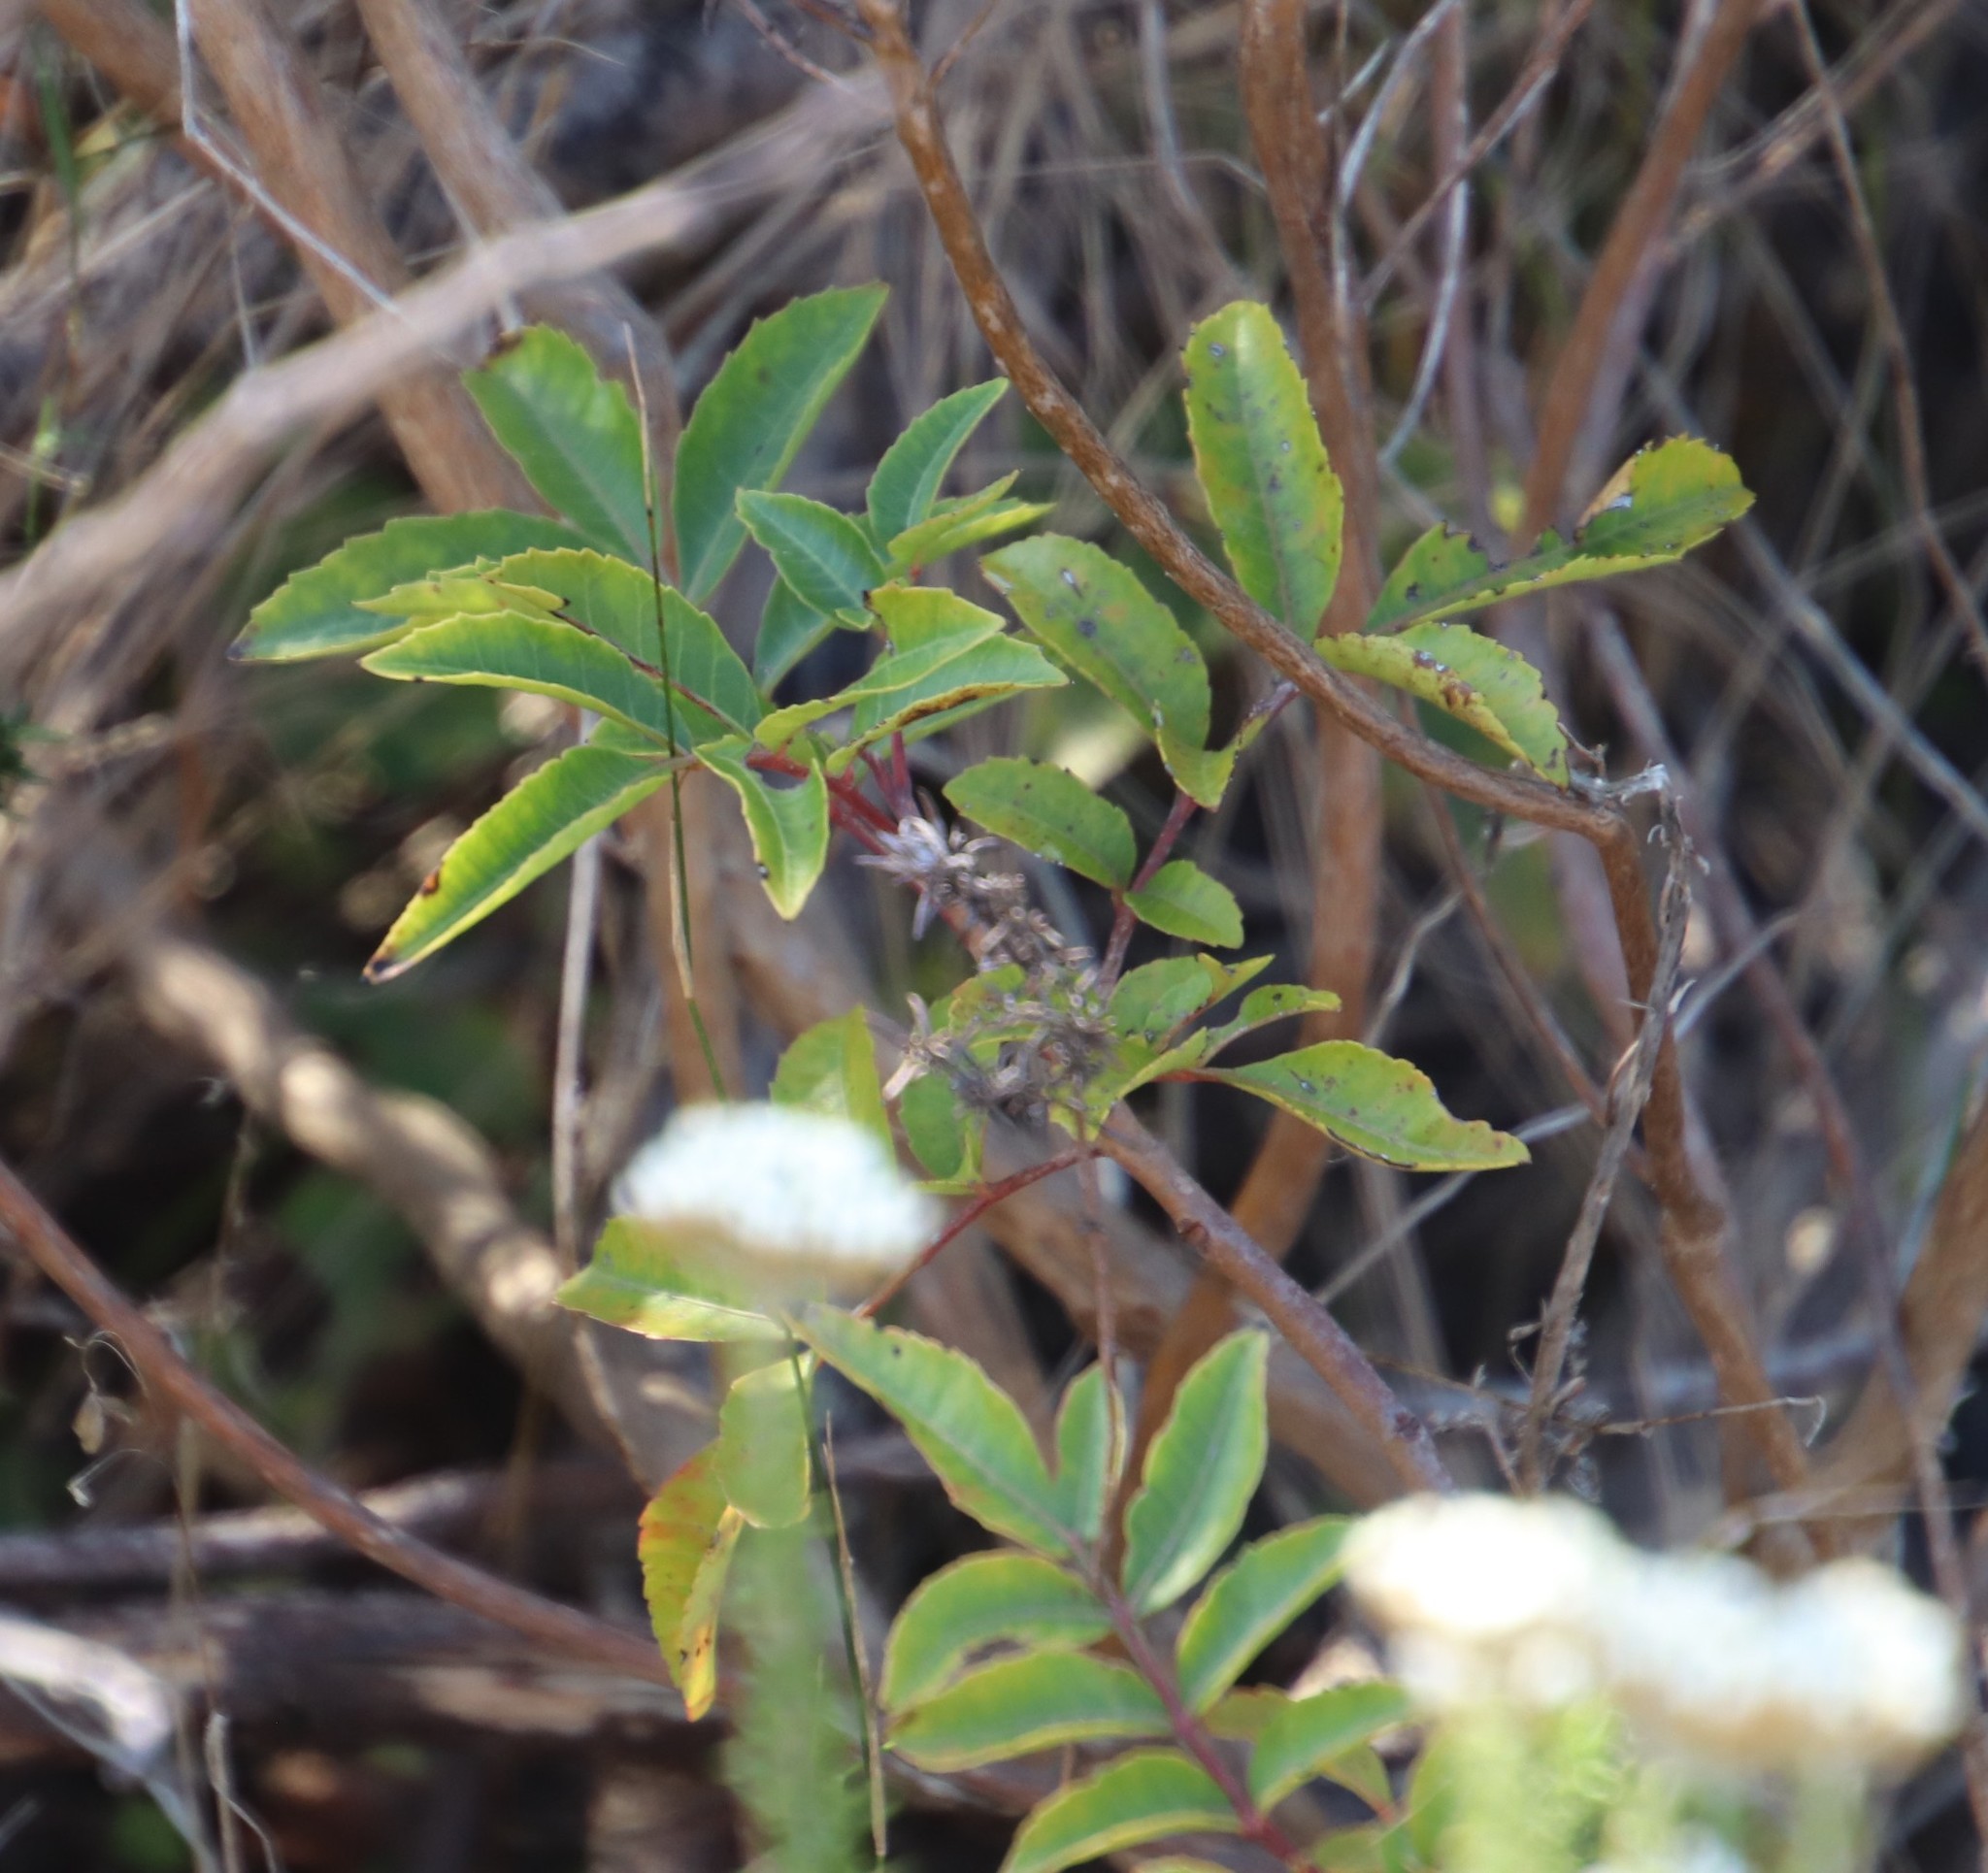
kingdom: Plantae
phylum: Tracheophyta
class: Magnoliopsida
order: Sapindales
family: Anacardiaceae
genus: Schinus
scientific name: Schinus terebinthifolia
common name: Brazilian peppertree
